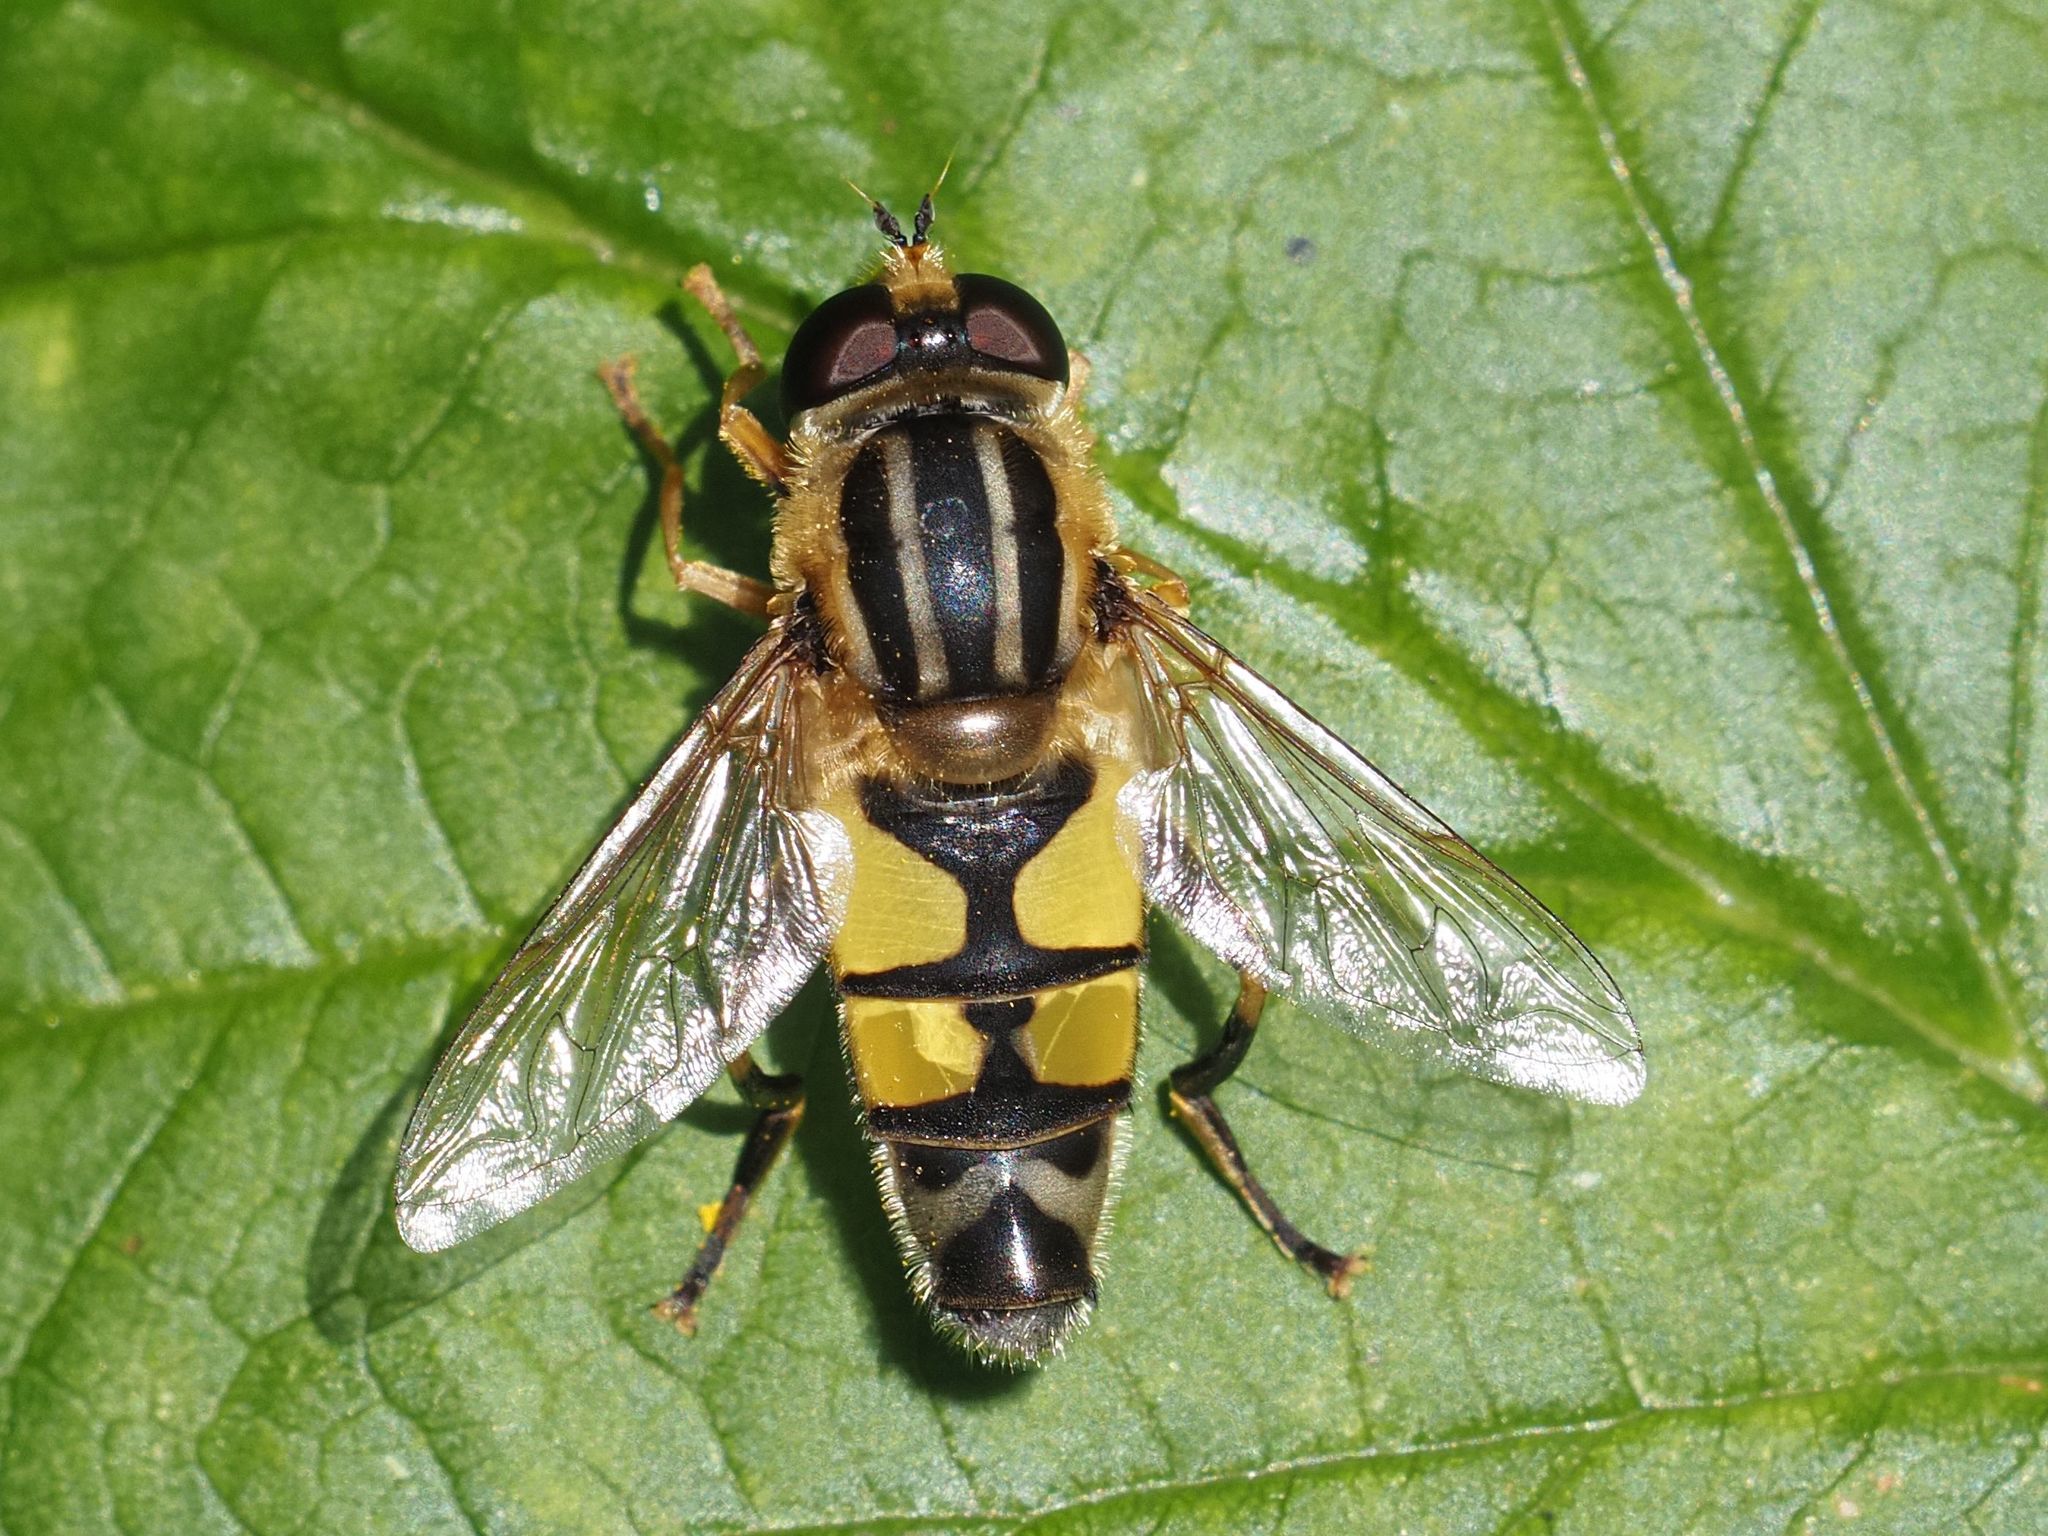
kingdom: Animalia
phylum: Arthropoda
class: Insecta
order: Diptera
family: Syrphidae
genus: Helophilus
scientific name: Helophilus trivittatus
